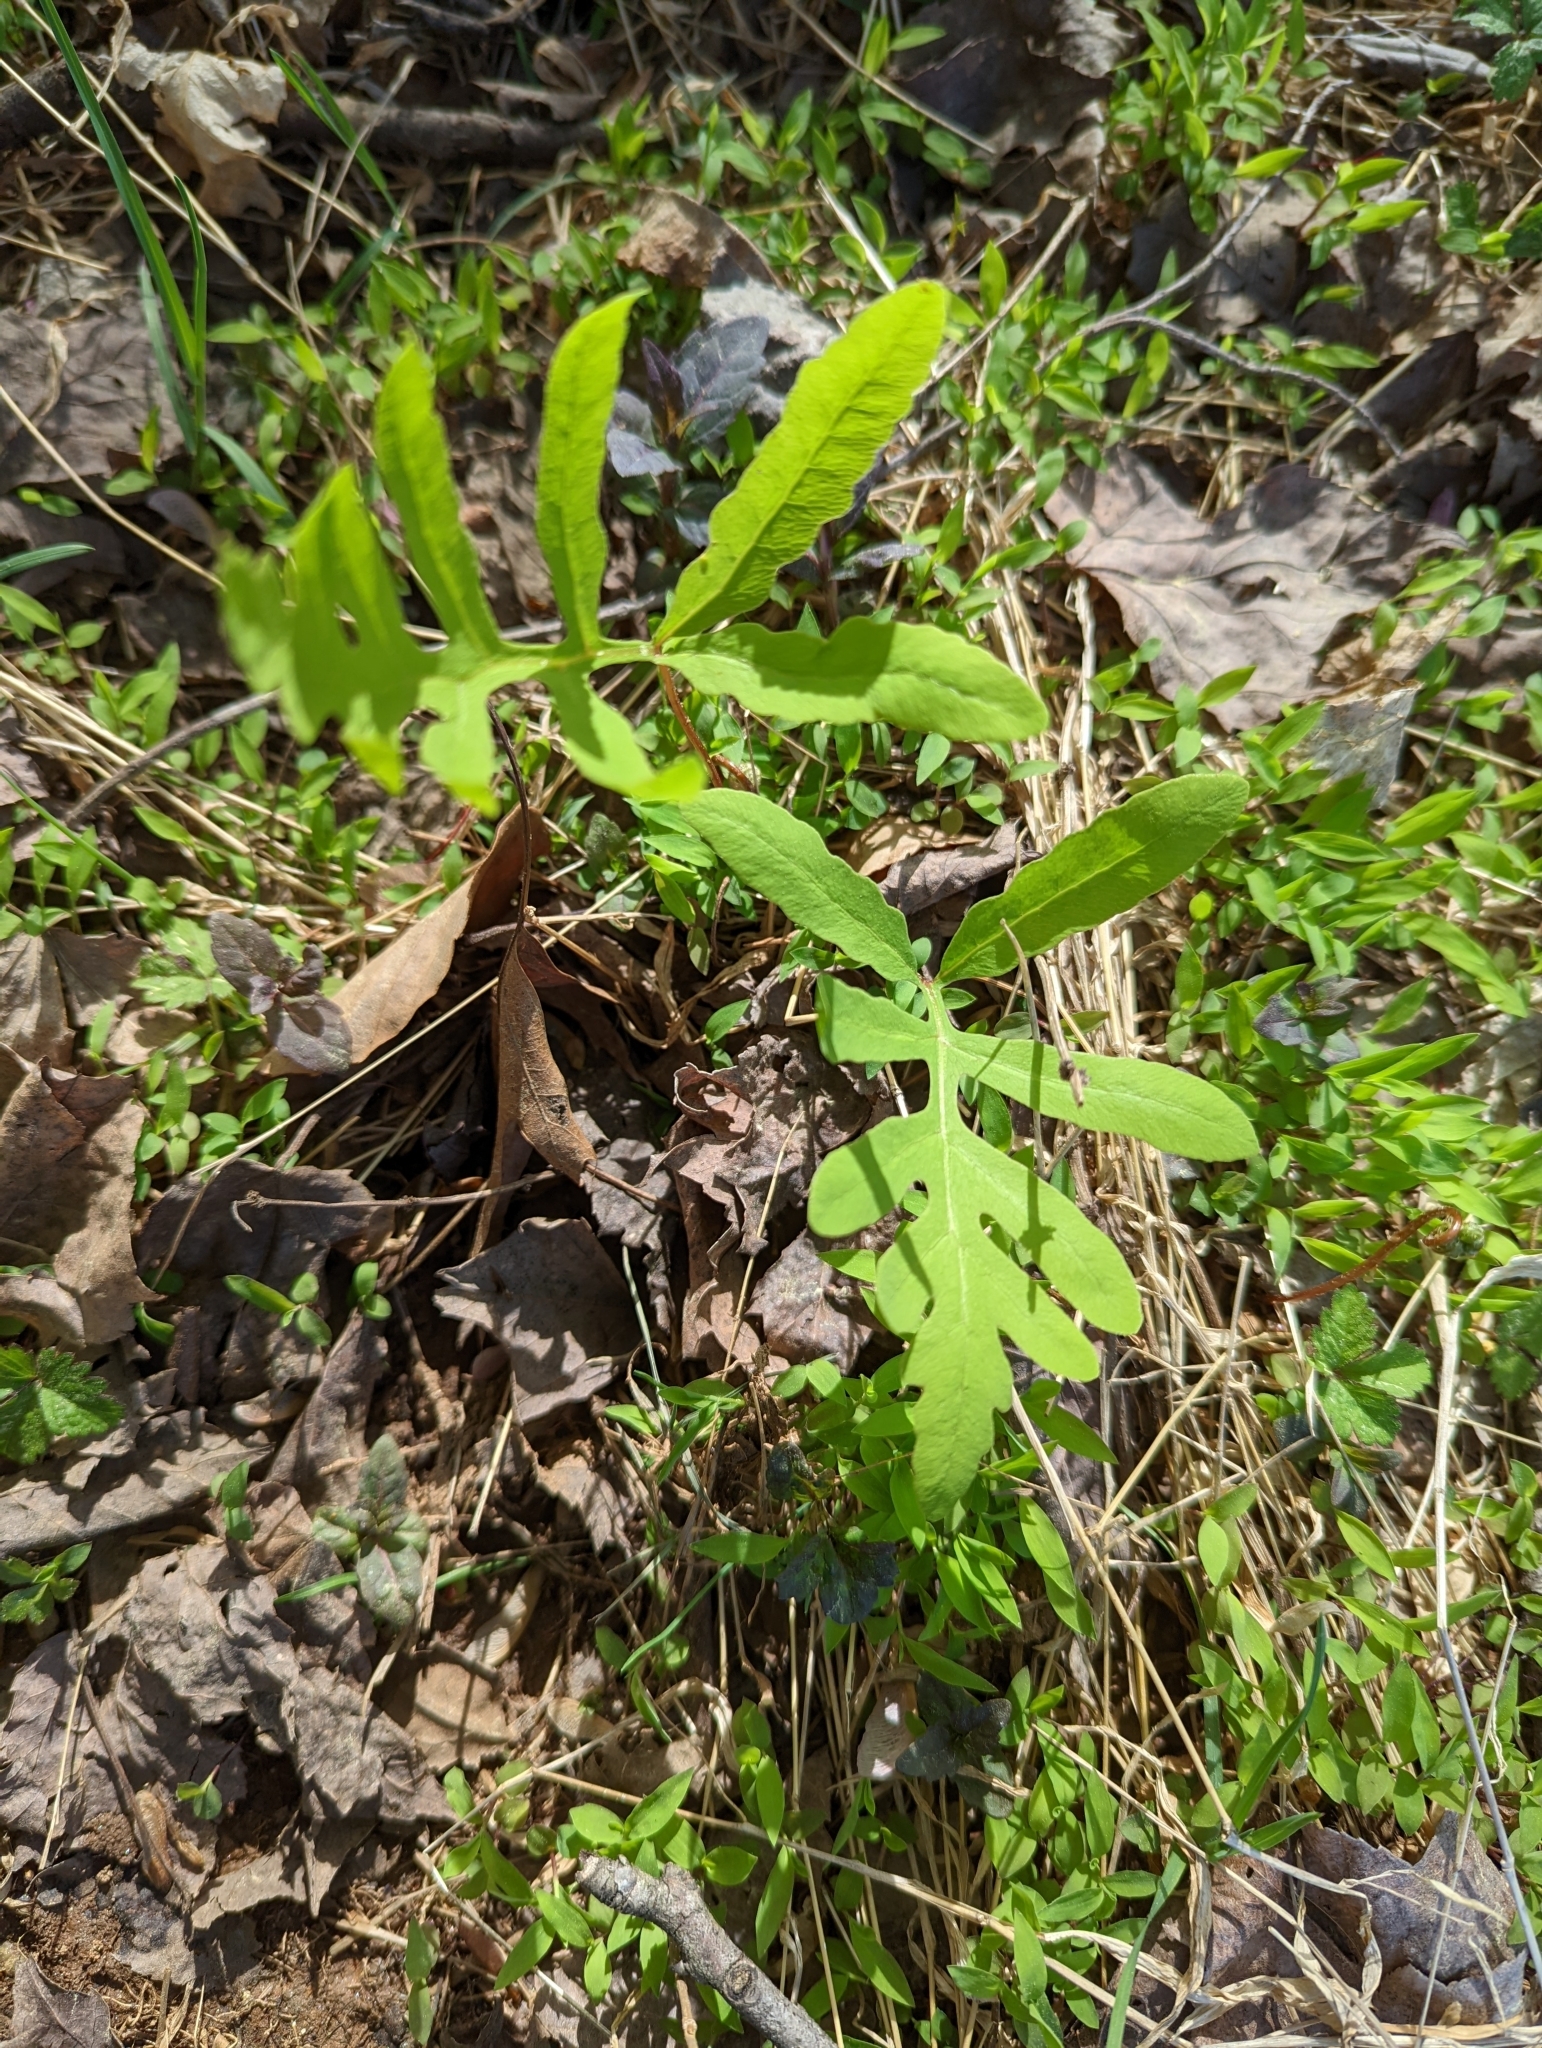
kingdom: Plantae
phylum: Tracheophyta
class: Polypodiopsida
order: Polypodiales
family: Onocleaceae
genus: Onoclea
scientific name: Onoclea sensibilis
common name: Sensitive fern
